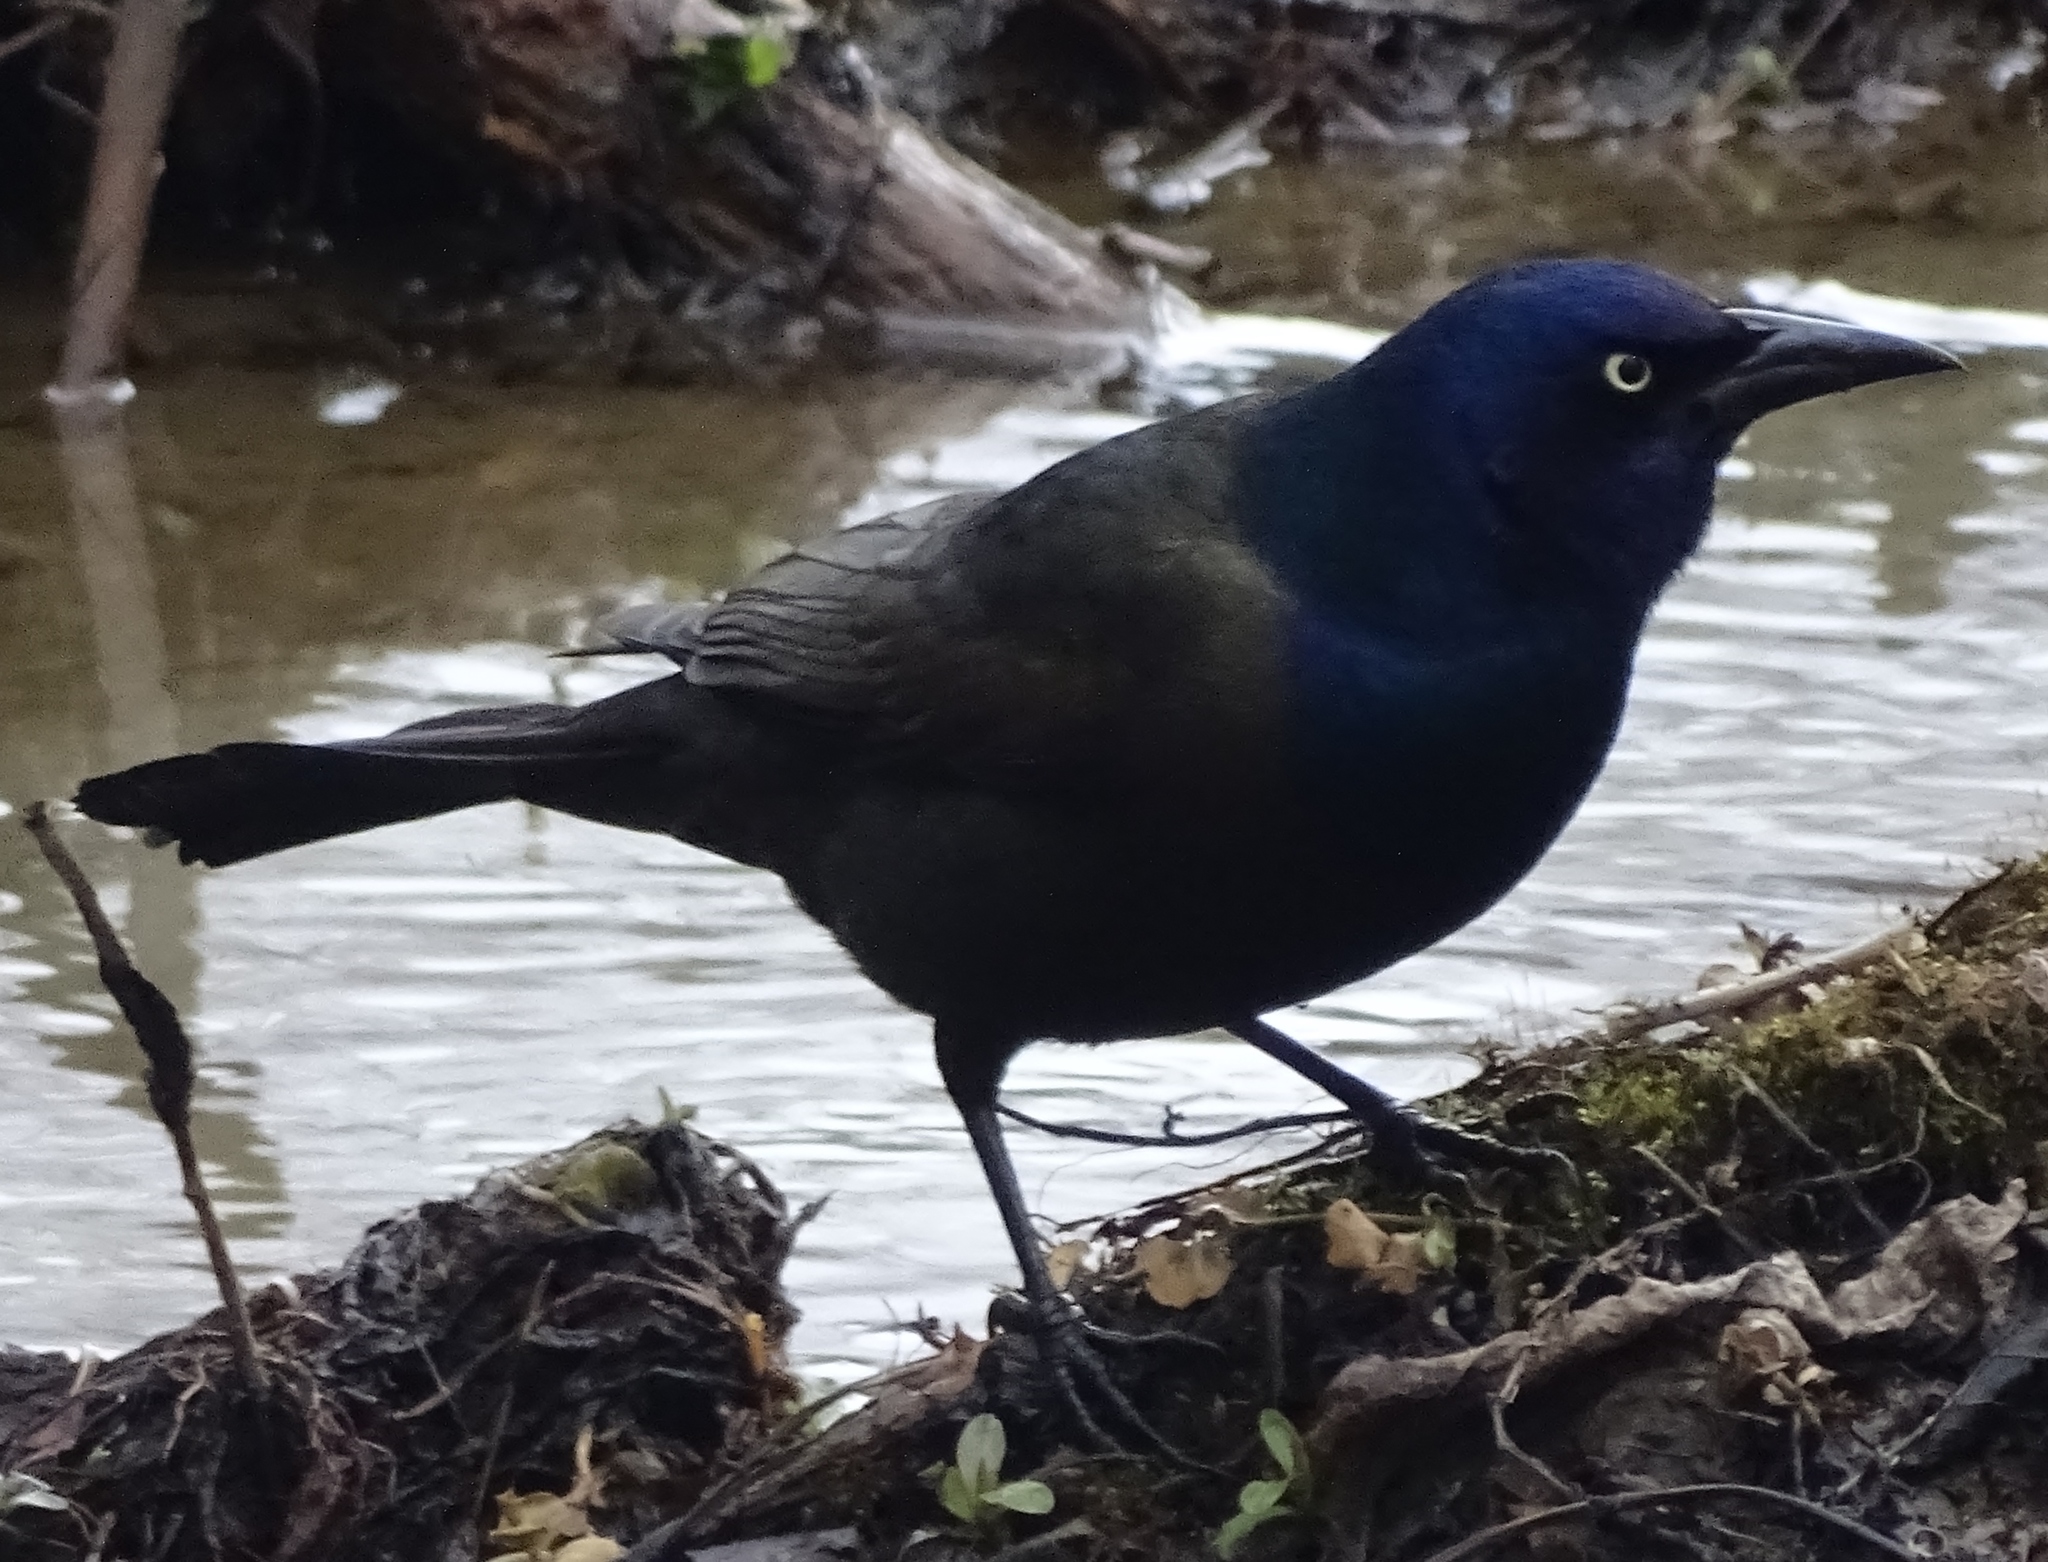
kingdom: Animalia
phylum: Chordata
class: Aves
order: Passeriformes
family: Icteridae
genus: Quiscalus
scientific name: Quiscalus quiscula
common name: Common grackle
